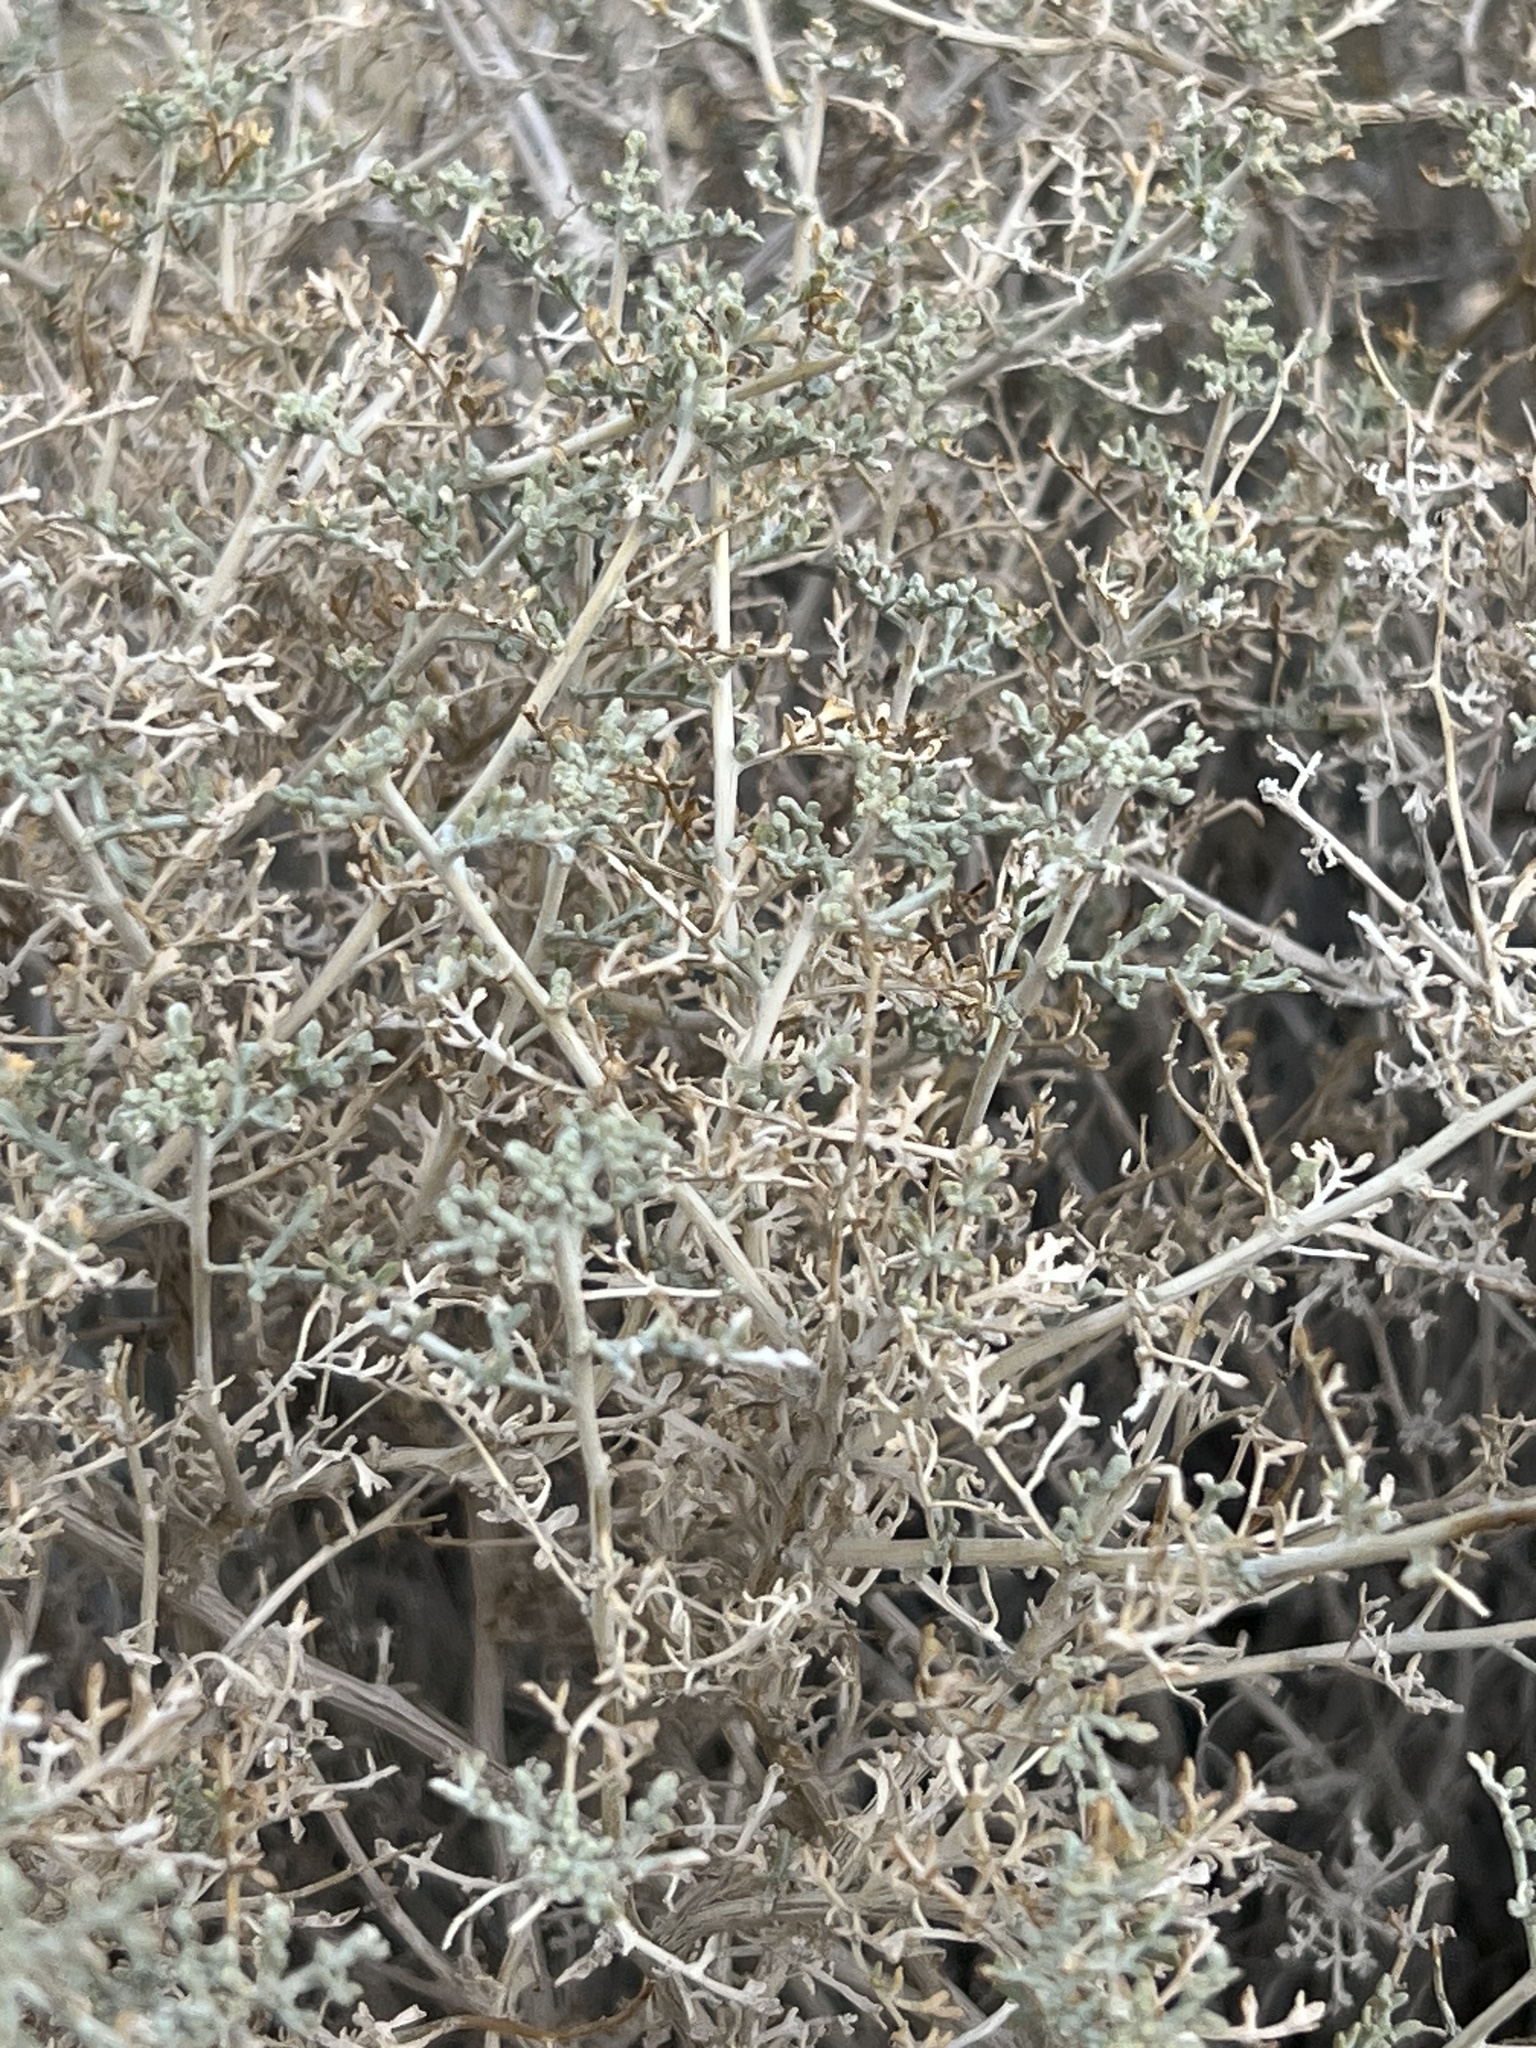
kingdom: Plantae
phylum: Tracheophyta
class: Magnoliopsida
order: Asterales
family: Asteraceae
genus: Ambrosia
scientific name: Ambrosia dumosa
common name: Bur-sage
